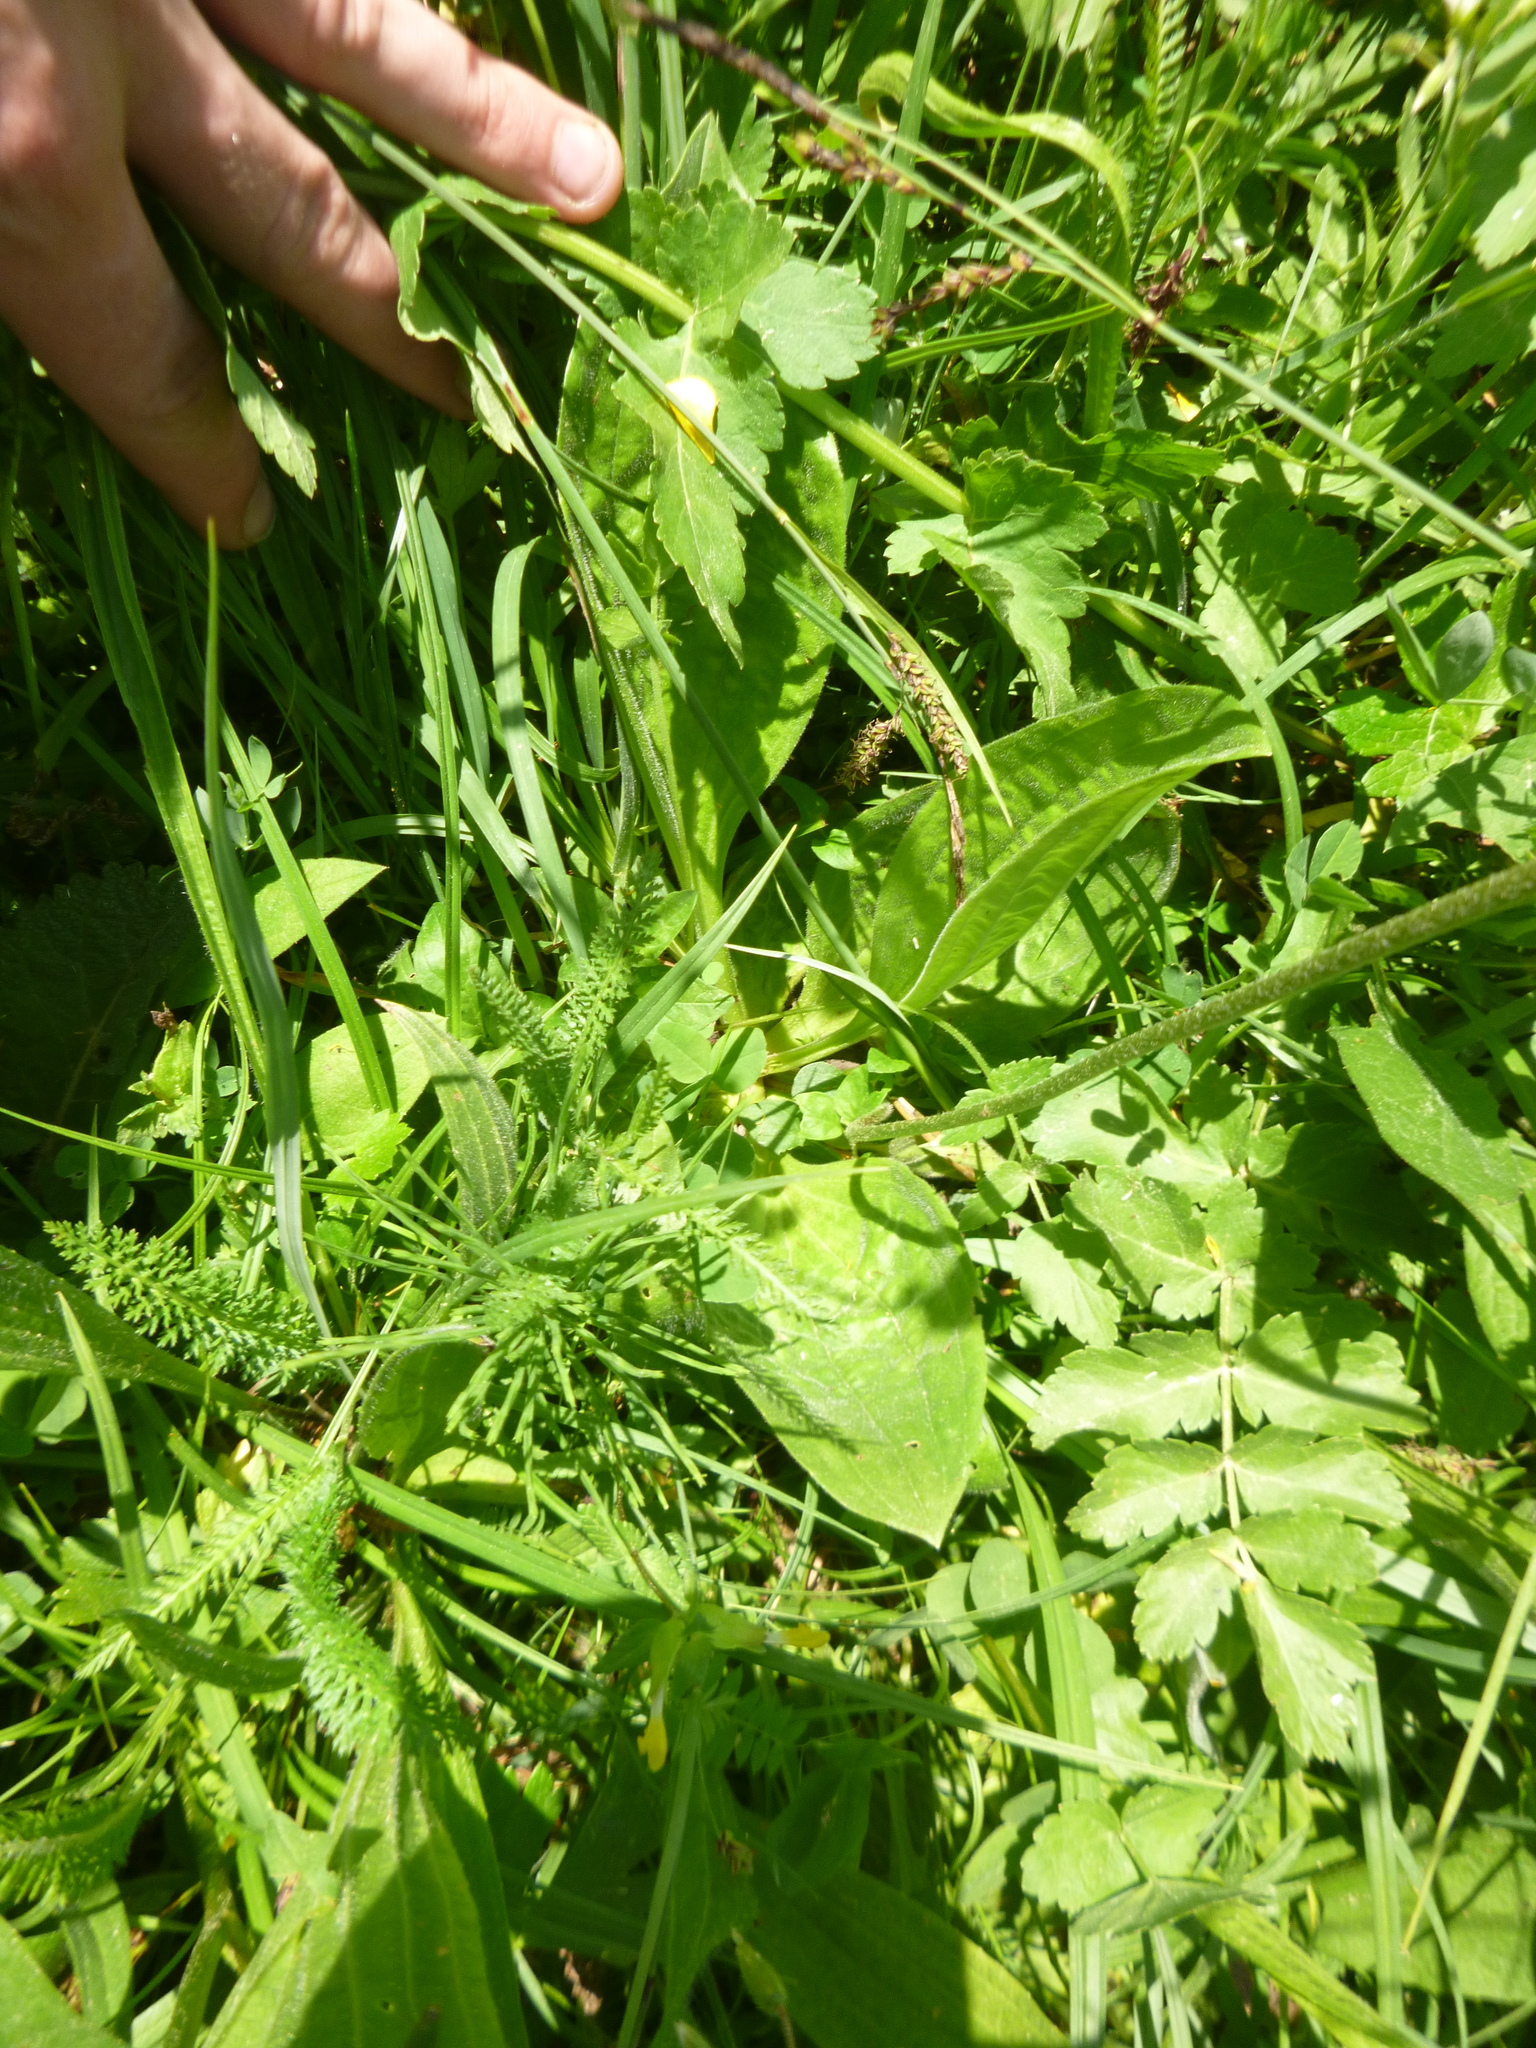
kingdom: Plantae
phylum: Tracheophyta
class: Magnoliopsida
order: Lamiales
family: Plantaginaceae
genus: Plantago
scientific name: Plantago media
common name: Hoary plantain
